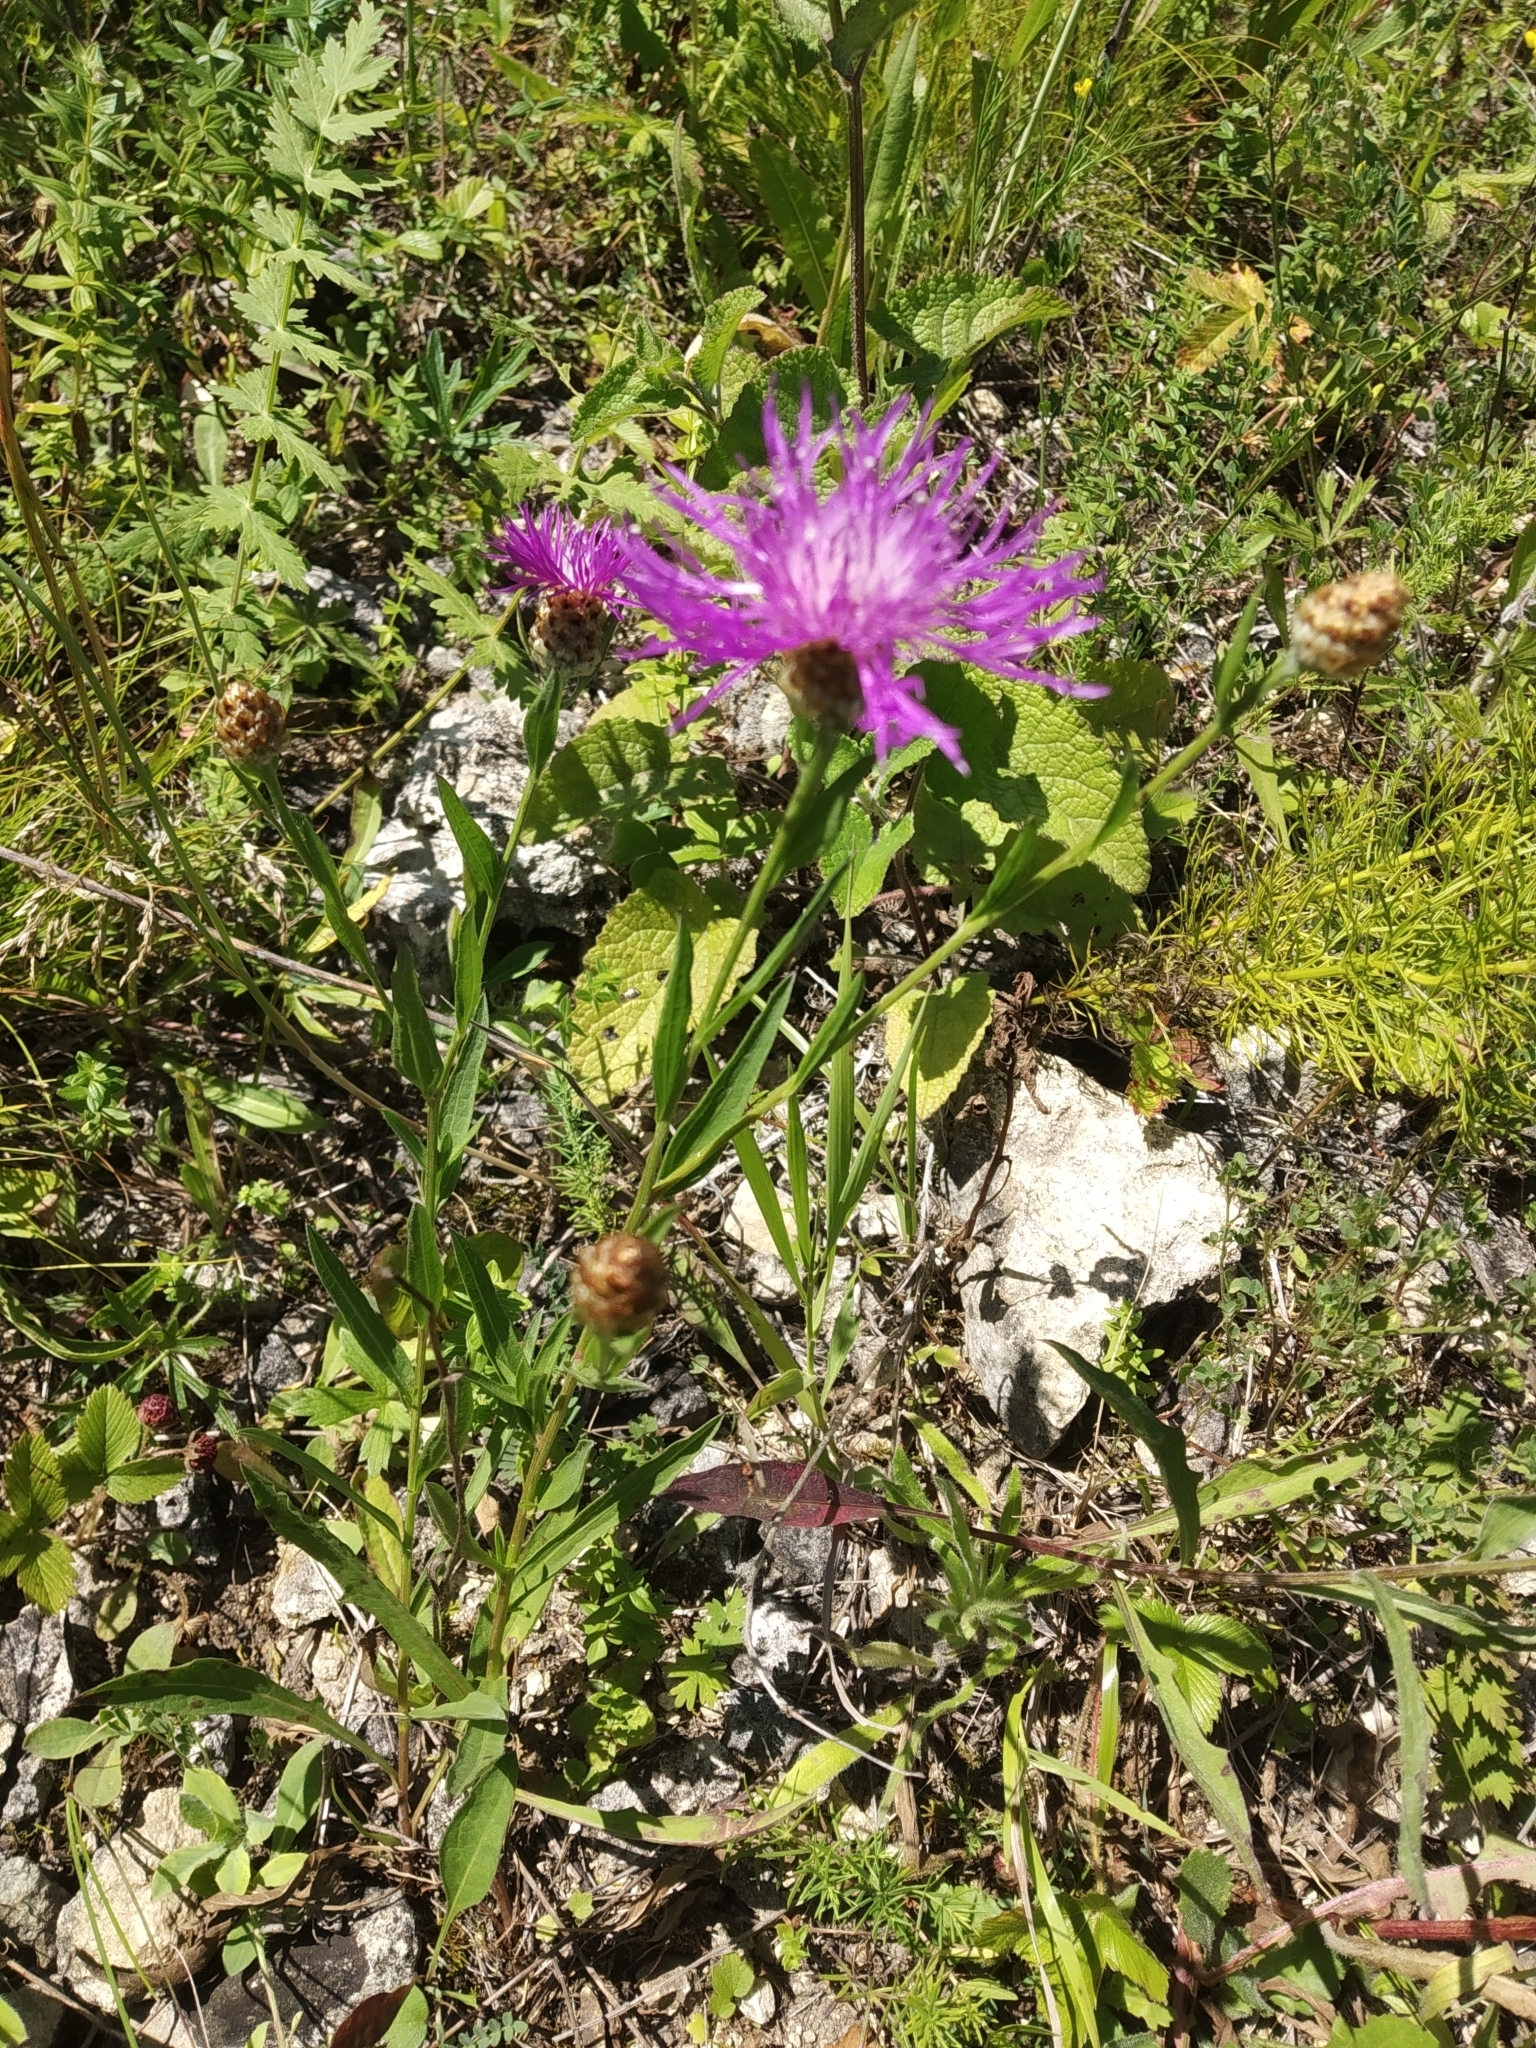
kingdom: Plantae
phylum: Tracheophyta
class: Magnoliopsida
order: Asterales
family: Asteraceae
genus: Centaurea
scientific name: Centaurea jacea
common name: Brown knapweed
